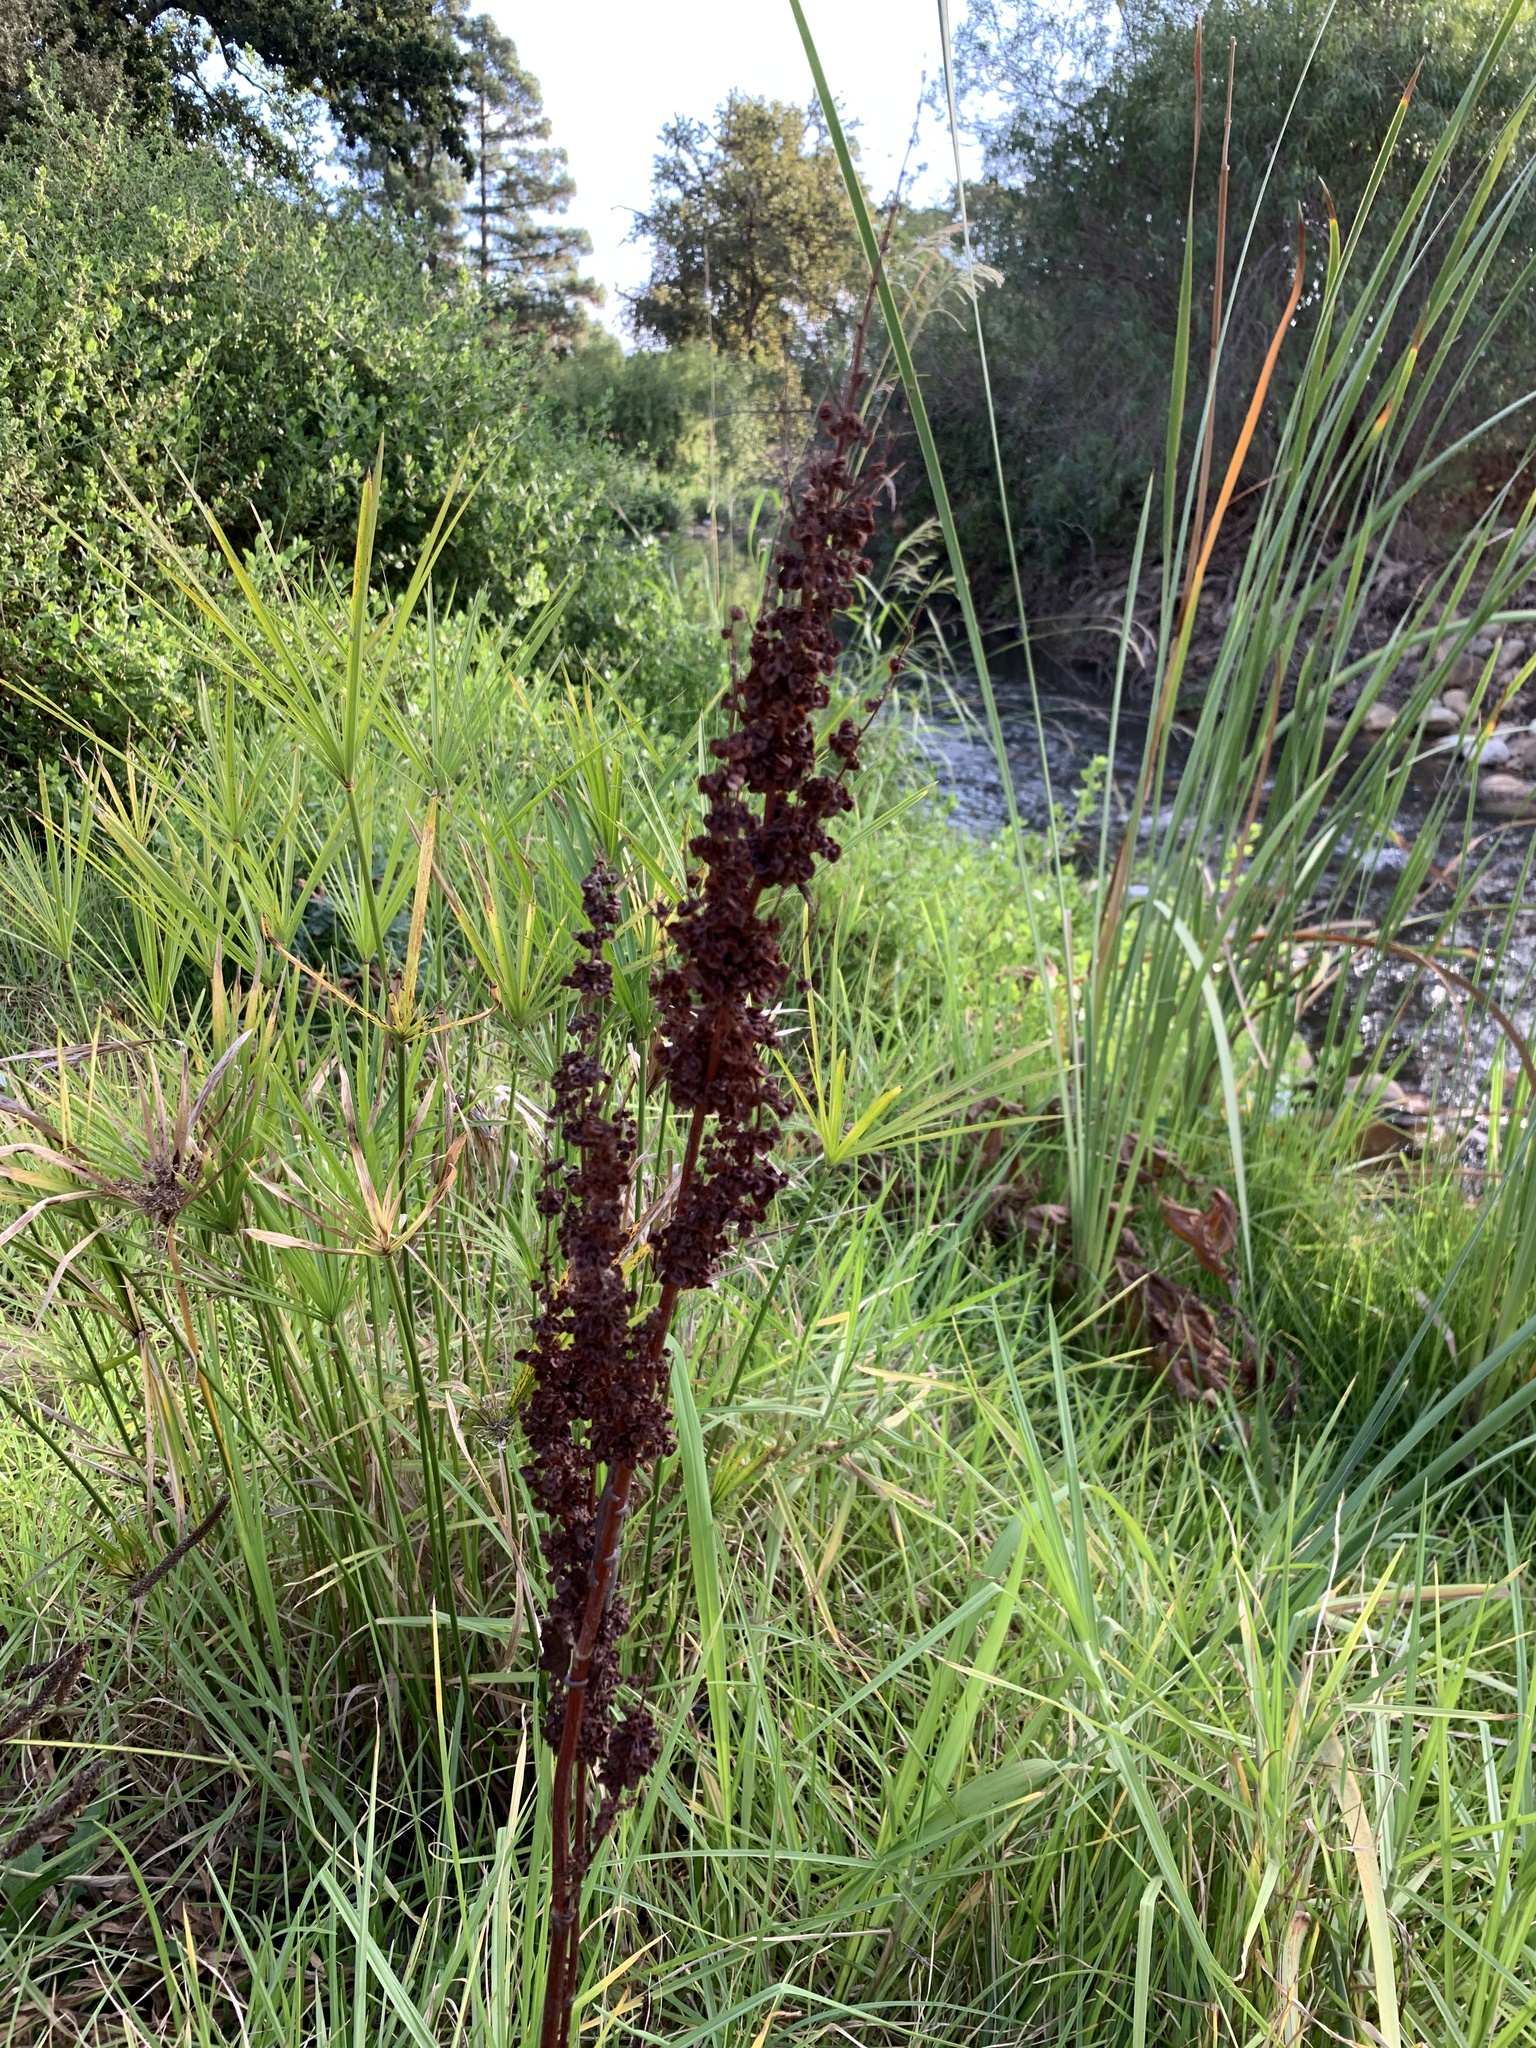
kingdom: Plantae
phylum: Tracheophyta
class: Magnoliopsida
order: Caryophyllales
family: Polygonaceae
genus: Rumex
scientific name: Rumex crispus
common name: Curled dock
